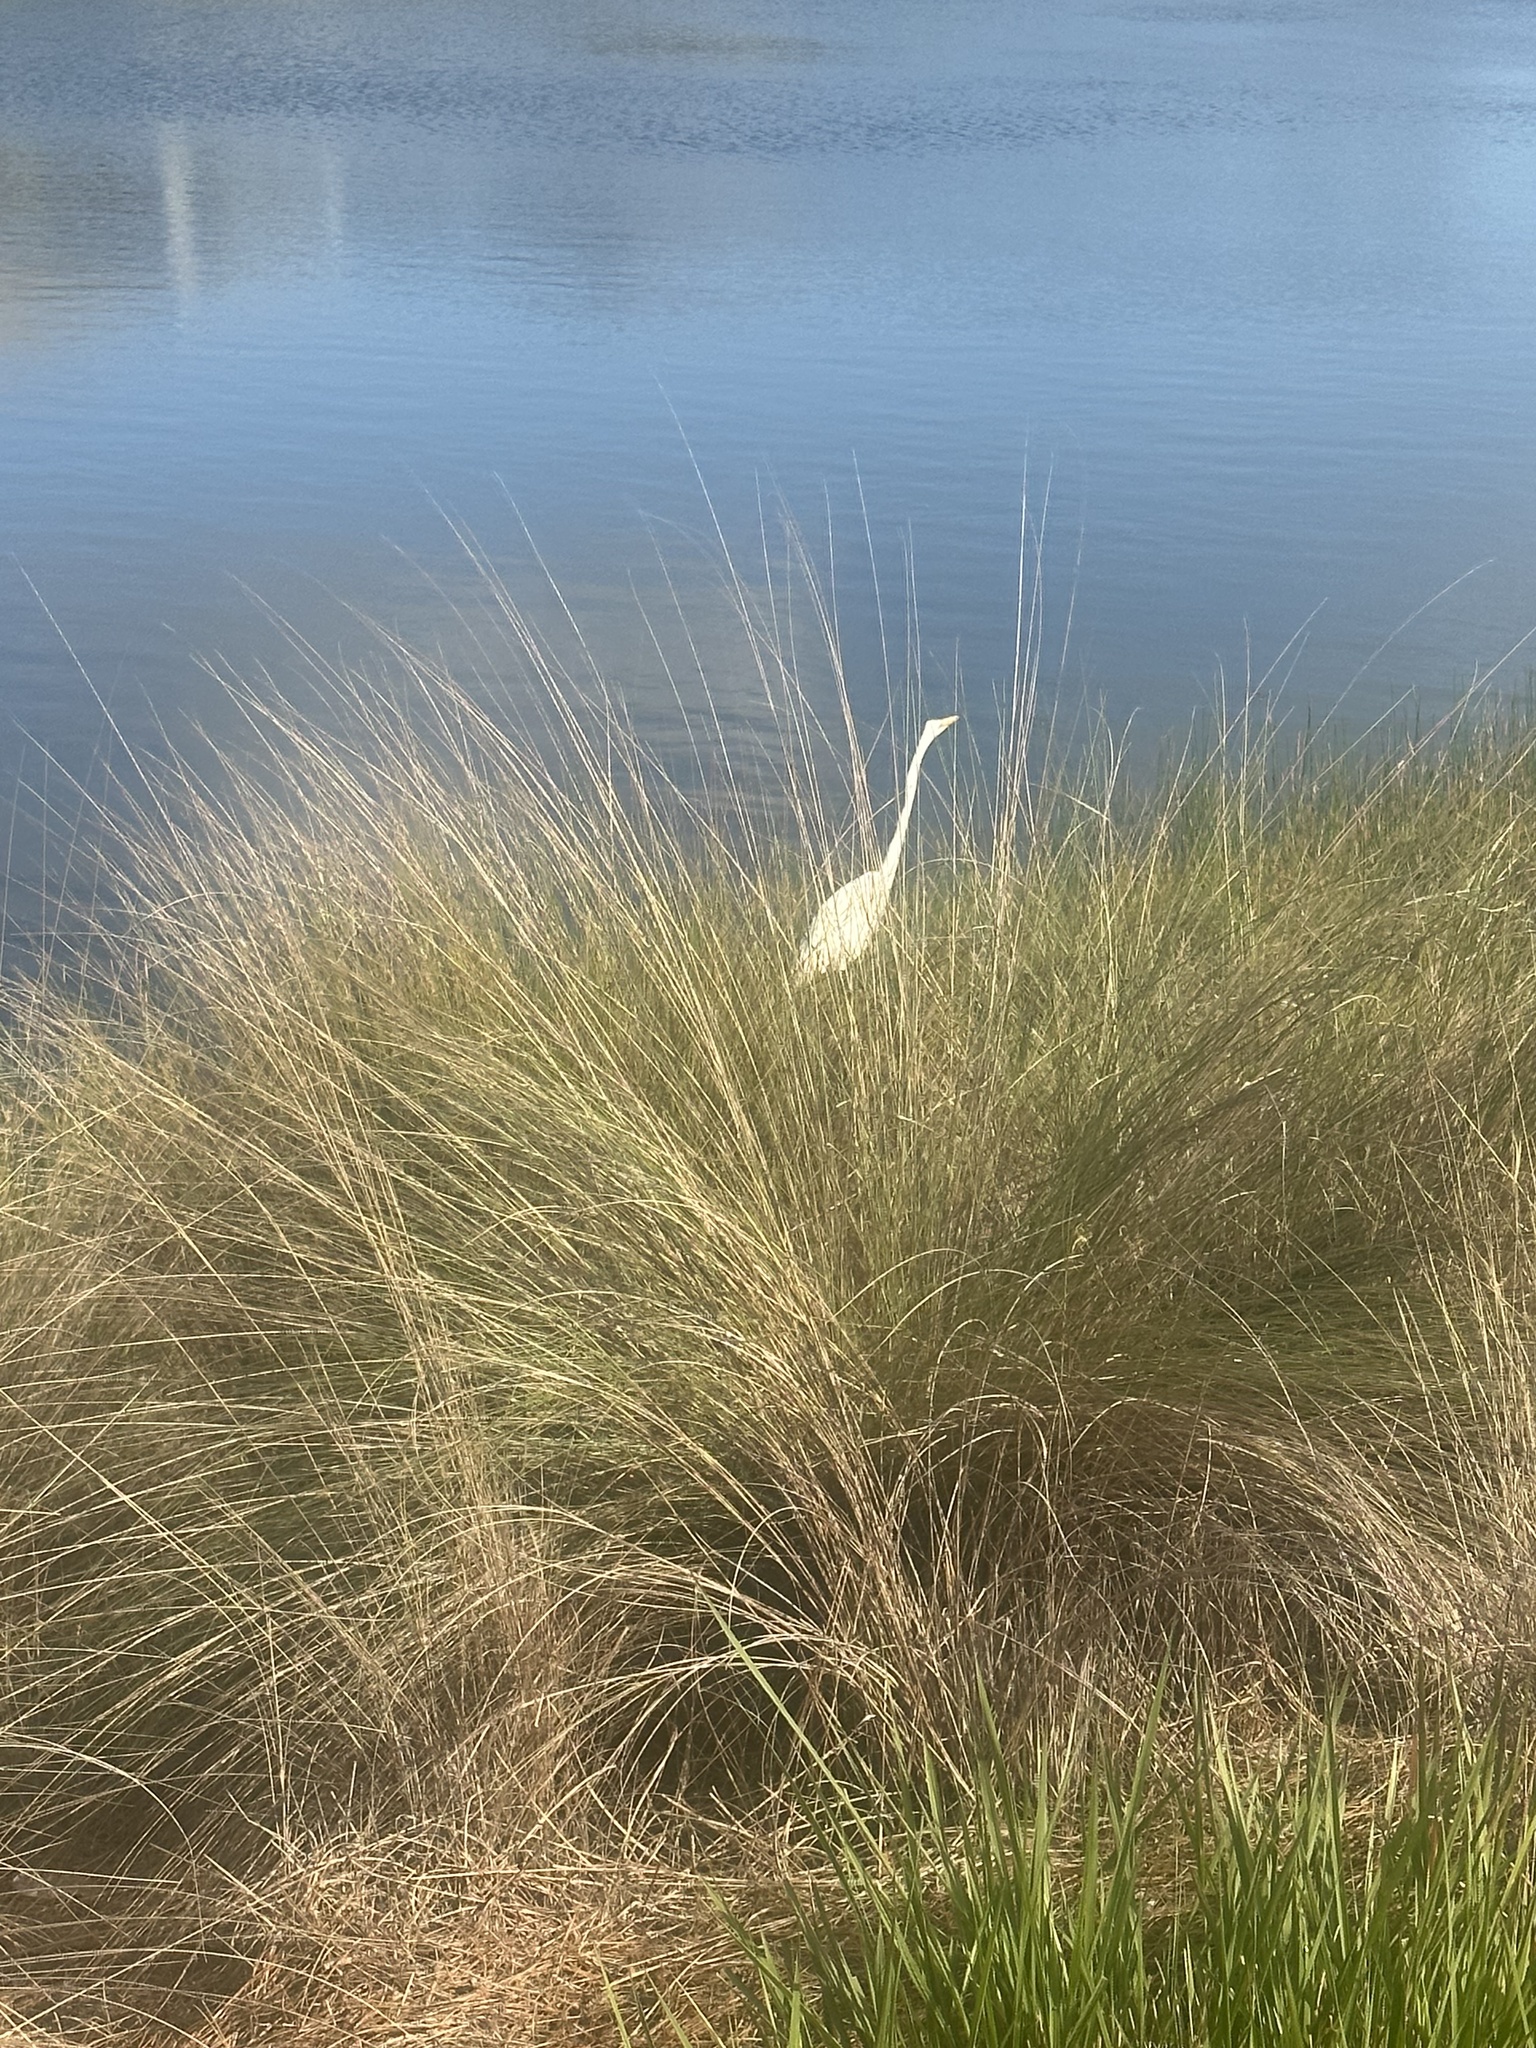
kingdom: Animalia
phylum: Chordata
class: Aves
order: Pelecaniformes
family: Ardeidae
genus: Ardea
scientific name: Ardea alba
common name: Great egret
